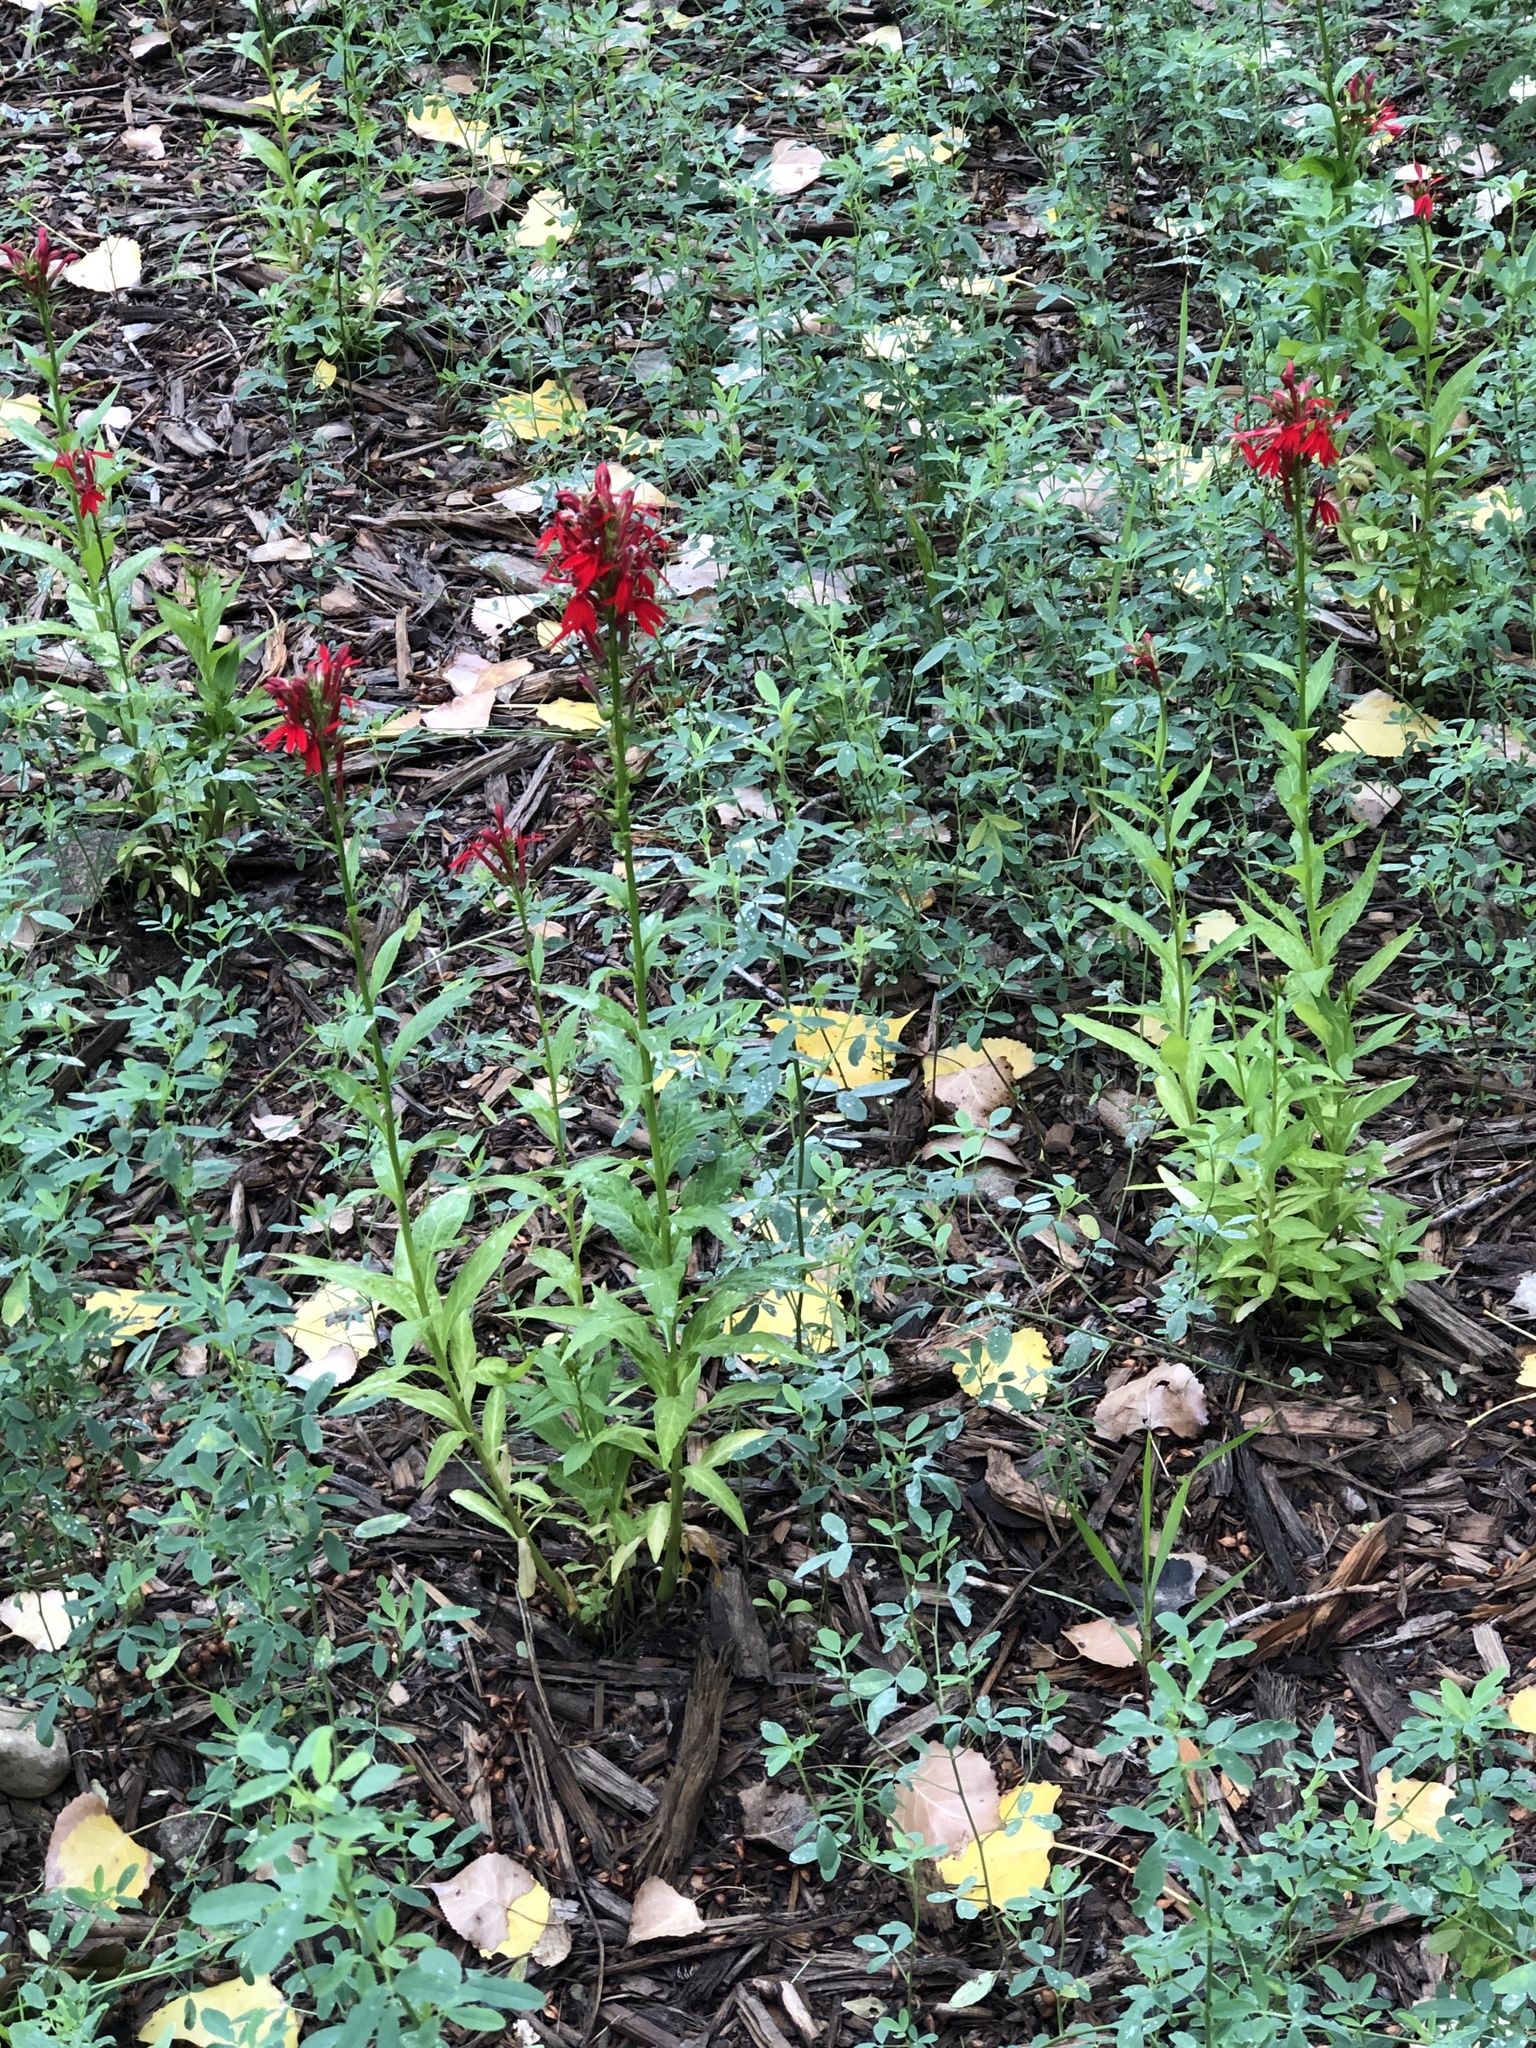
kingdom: Plantae
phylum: Tracheophyta
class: Magnoliopsida
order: Asterales
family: Campanulaceae
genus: Lobelia
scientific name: Lobelia cardinalis
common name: Cardinal flower
